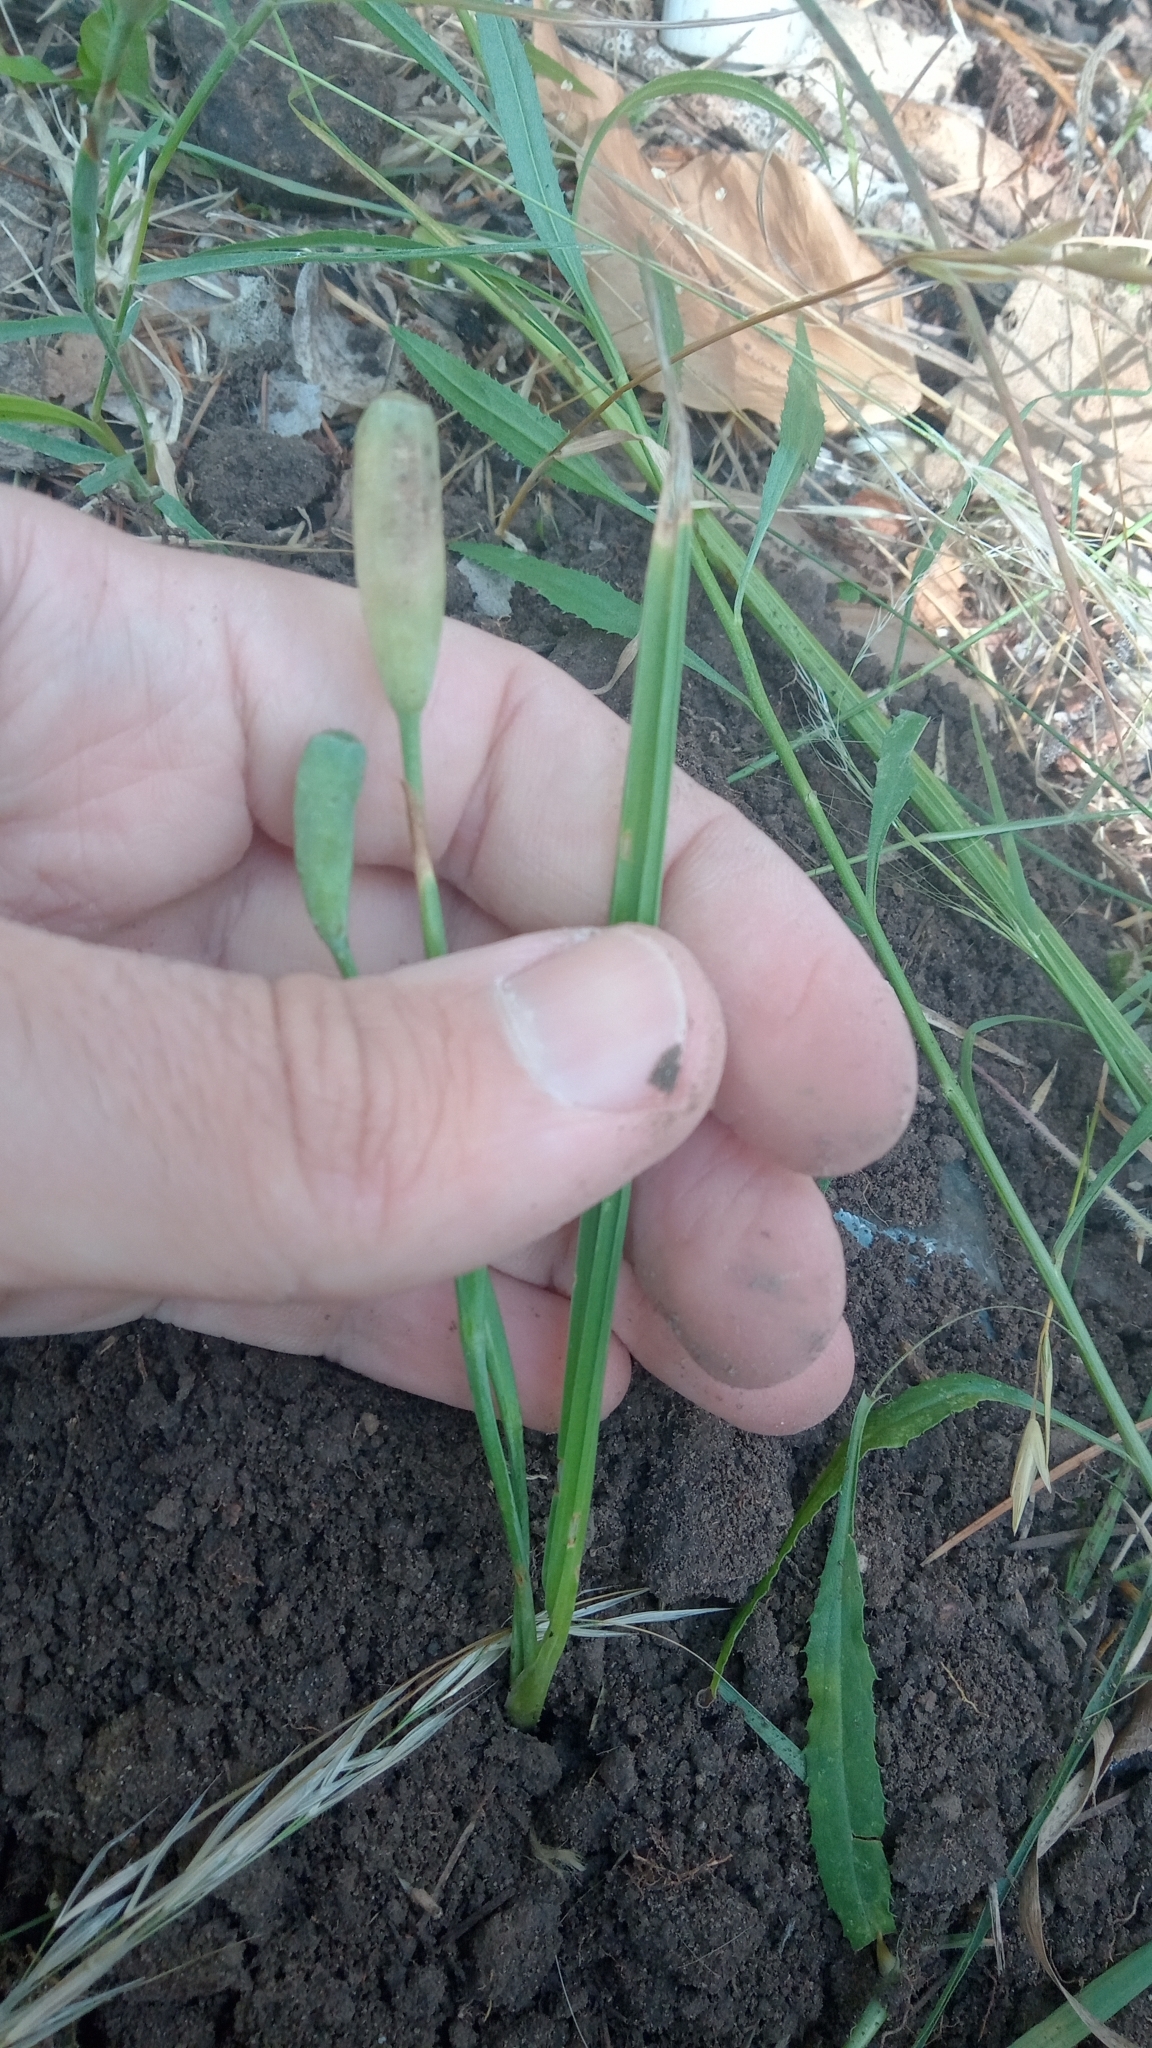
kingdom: Plantae
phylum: Tracheophyta
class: Liliopsida
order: Asparagales
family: Iridaceae
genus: Herbertia
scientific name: Herbertia lahue
